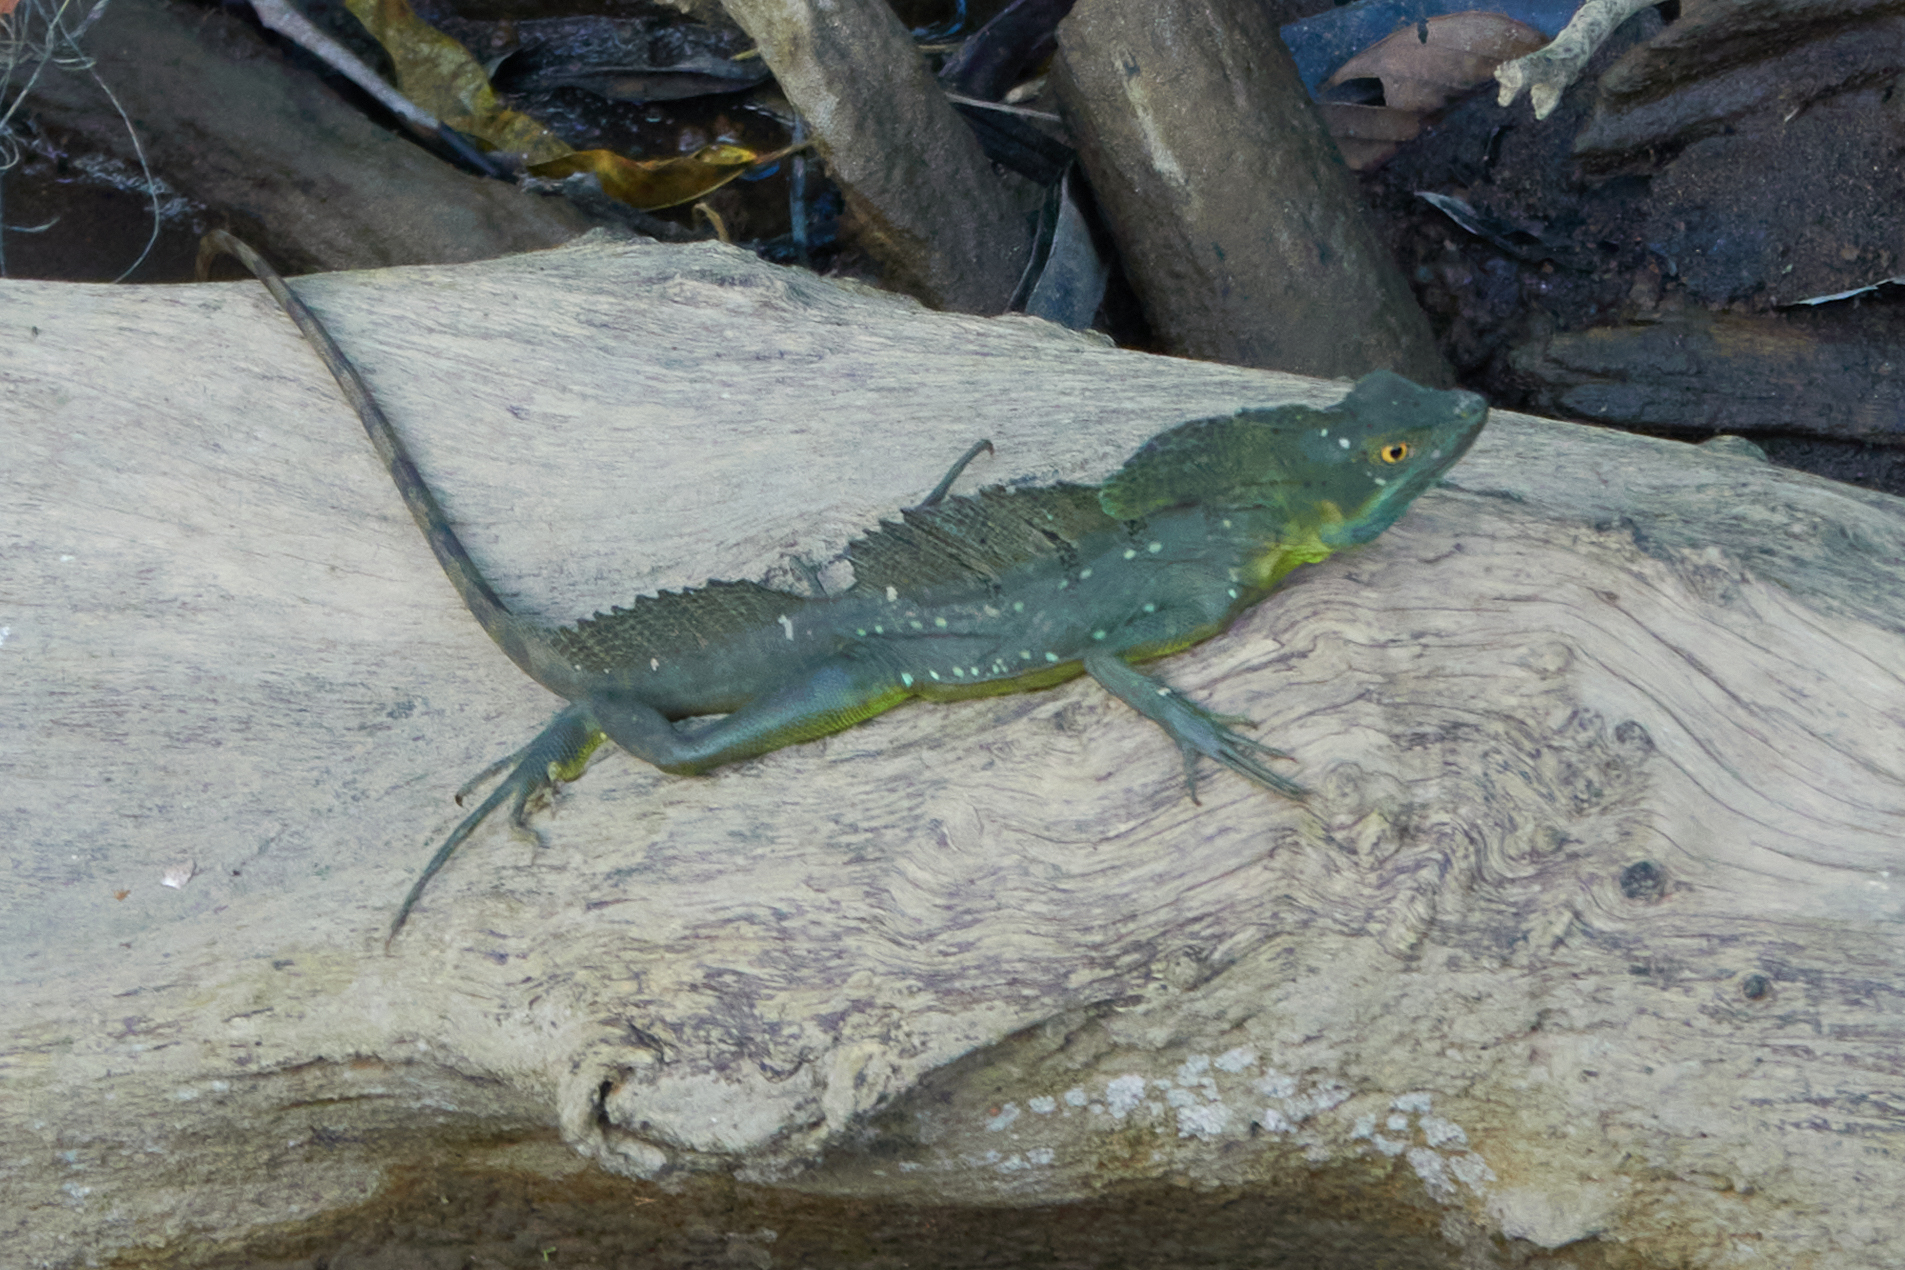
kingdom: Animalia
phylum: Chordata
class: Squamata
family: Corytophanidae
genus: Basiliscus
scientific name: Basiliscus plumifrons
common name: Green basilisk
